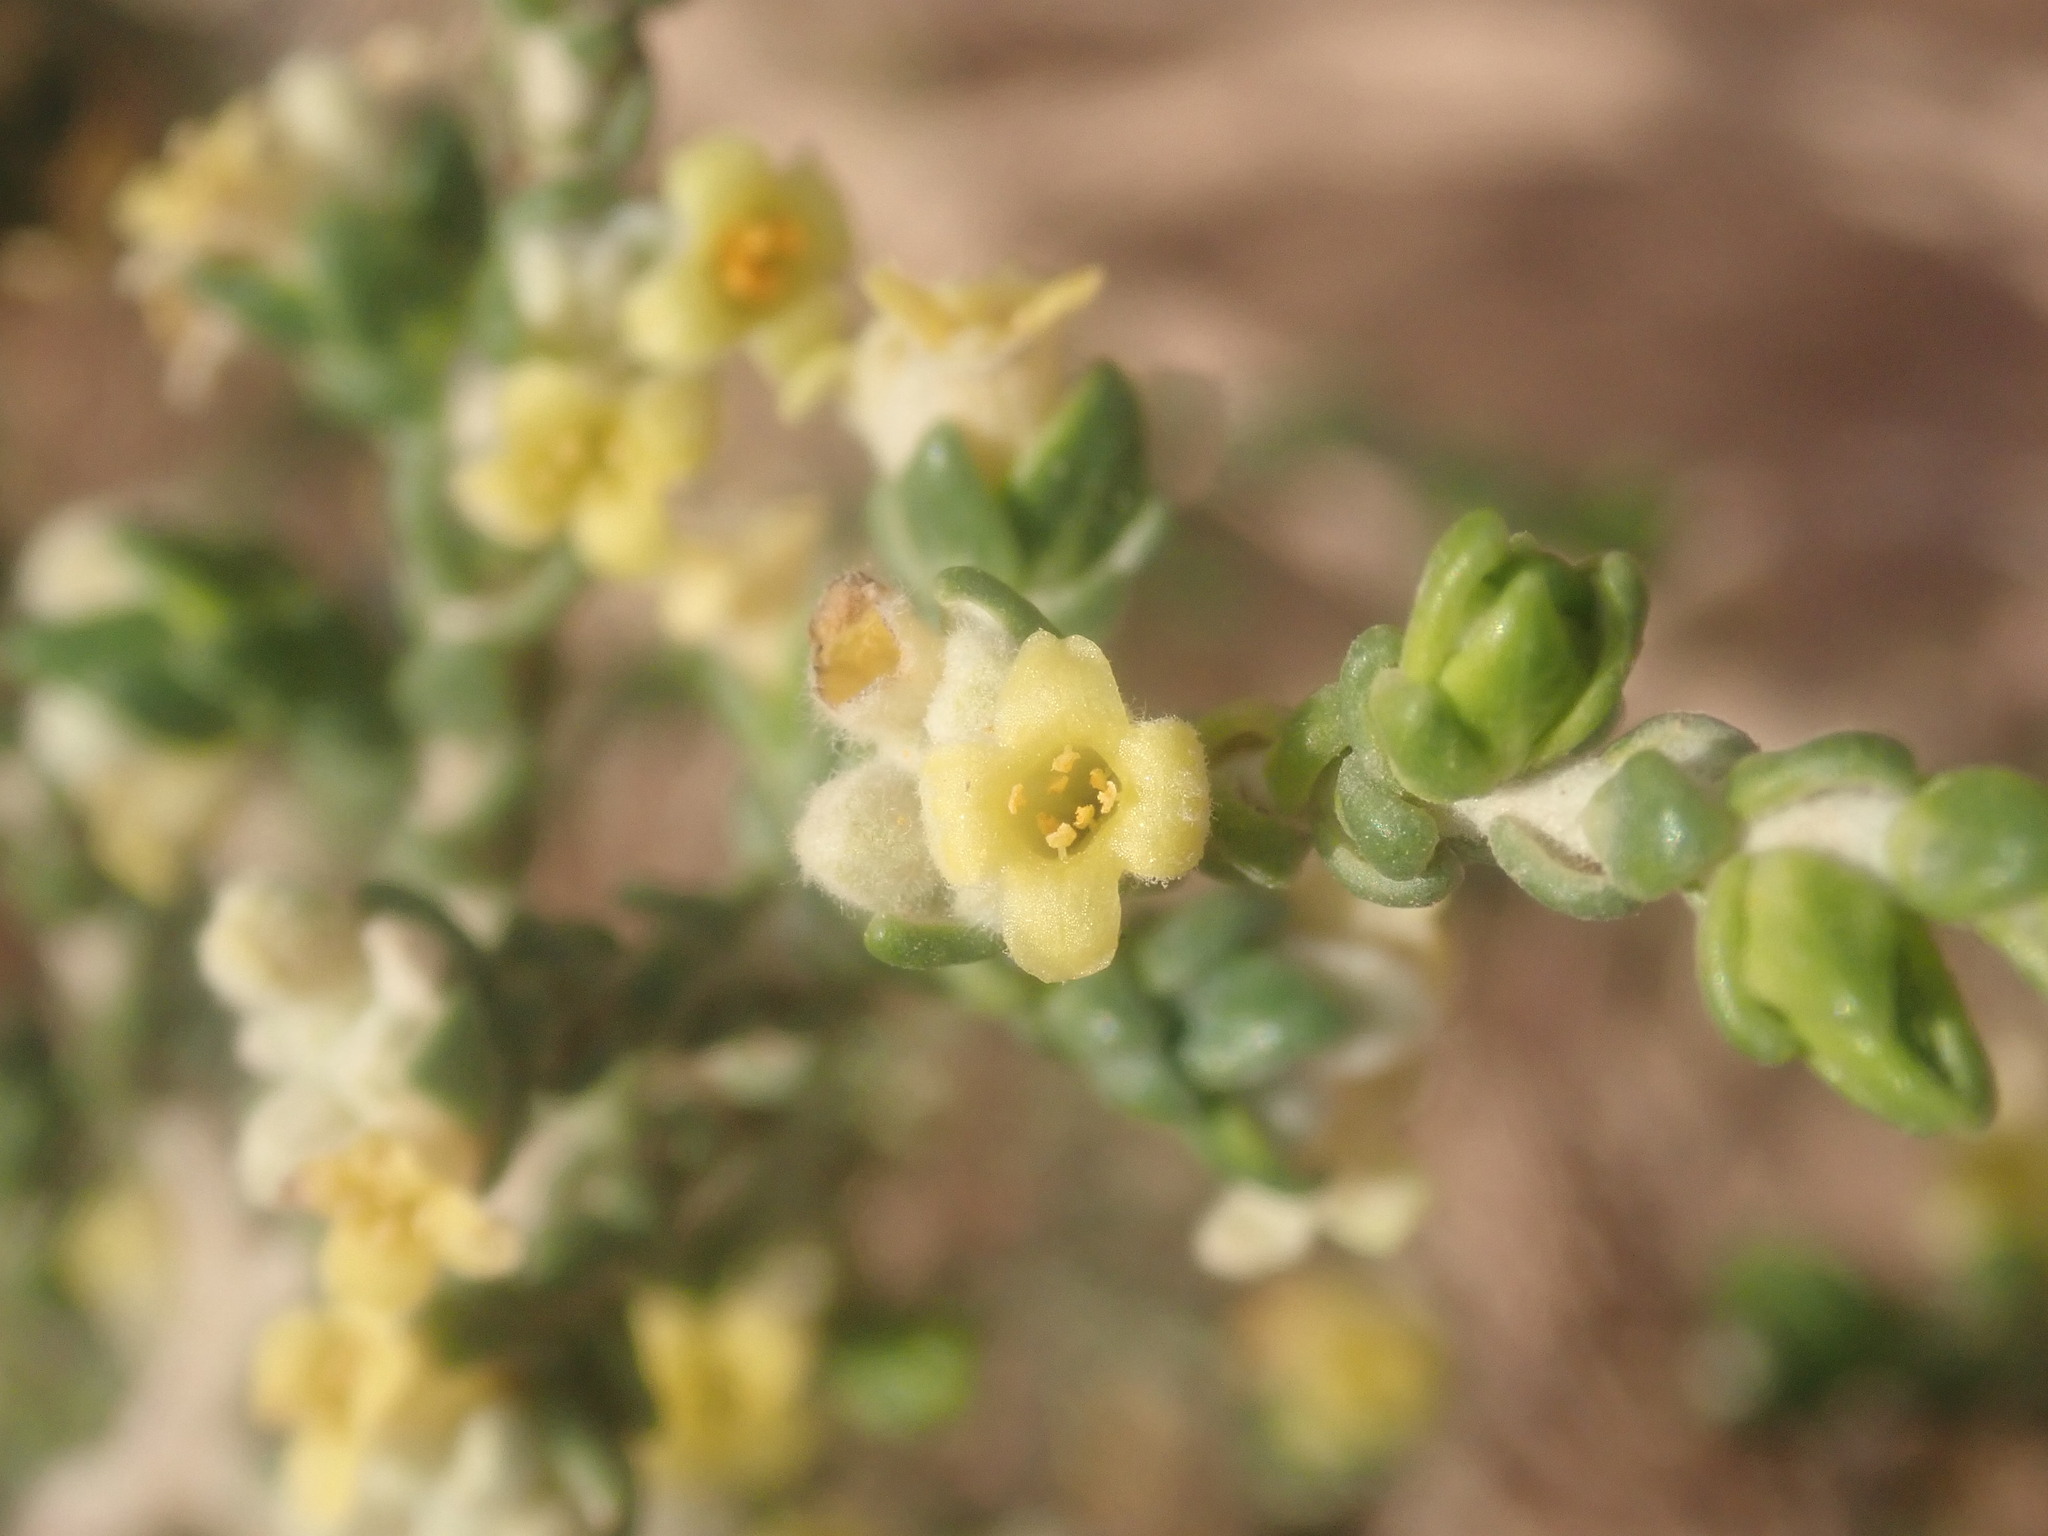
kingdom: Plantae
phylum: Tracheophyta
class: Magnoliopsida
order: Malvales
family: Thymelaeaceae
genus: Thymelaea
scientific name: Thymelaea hirsuta
